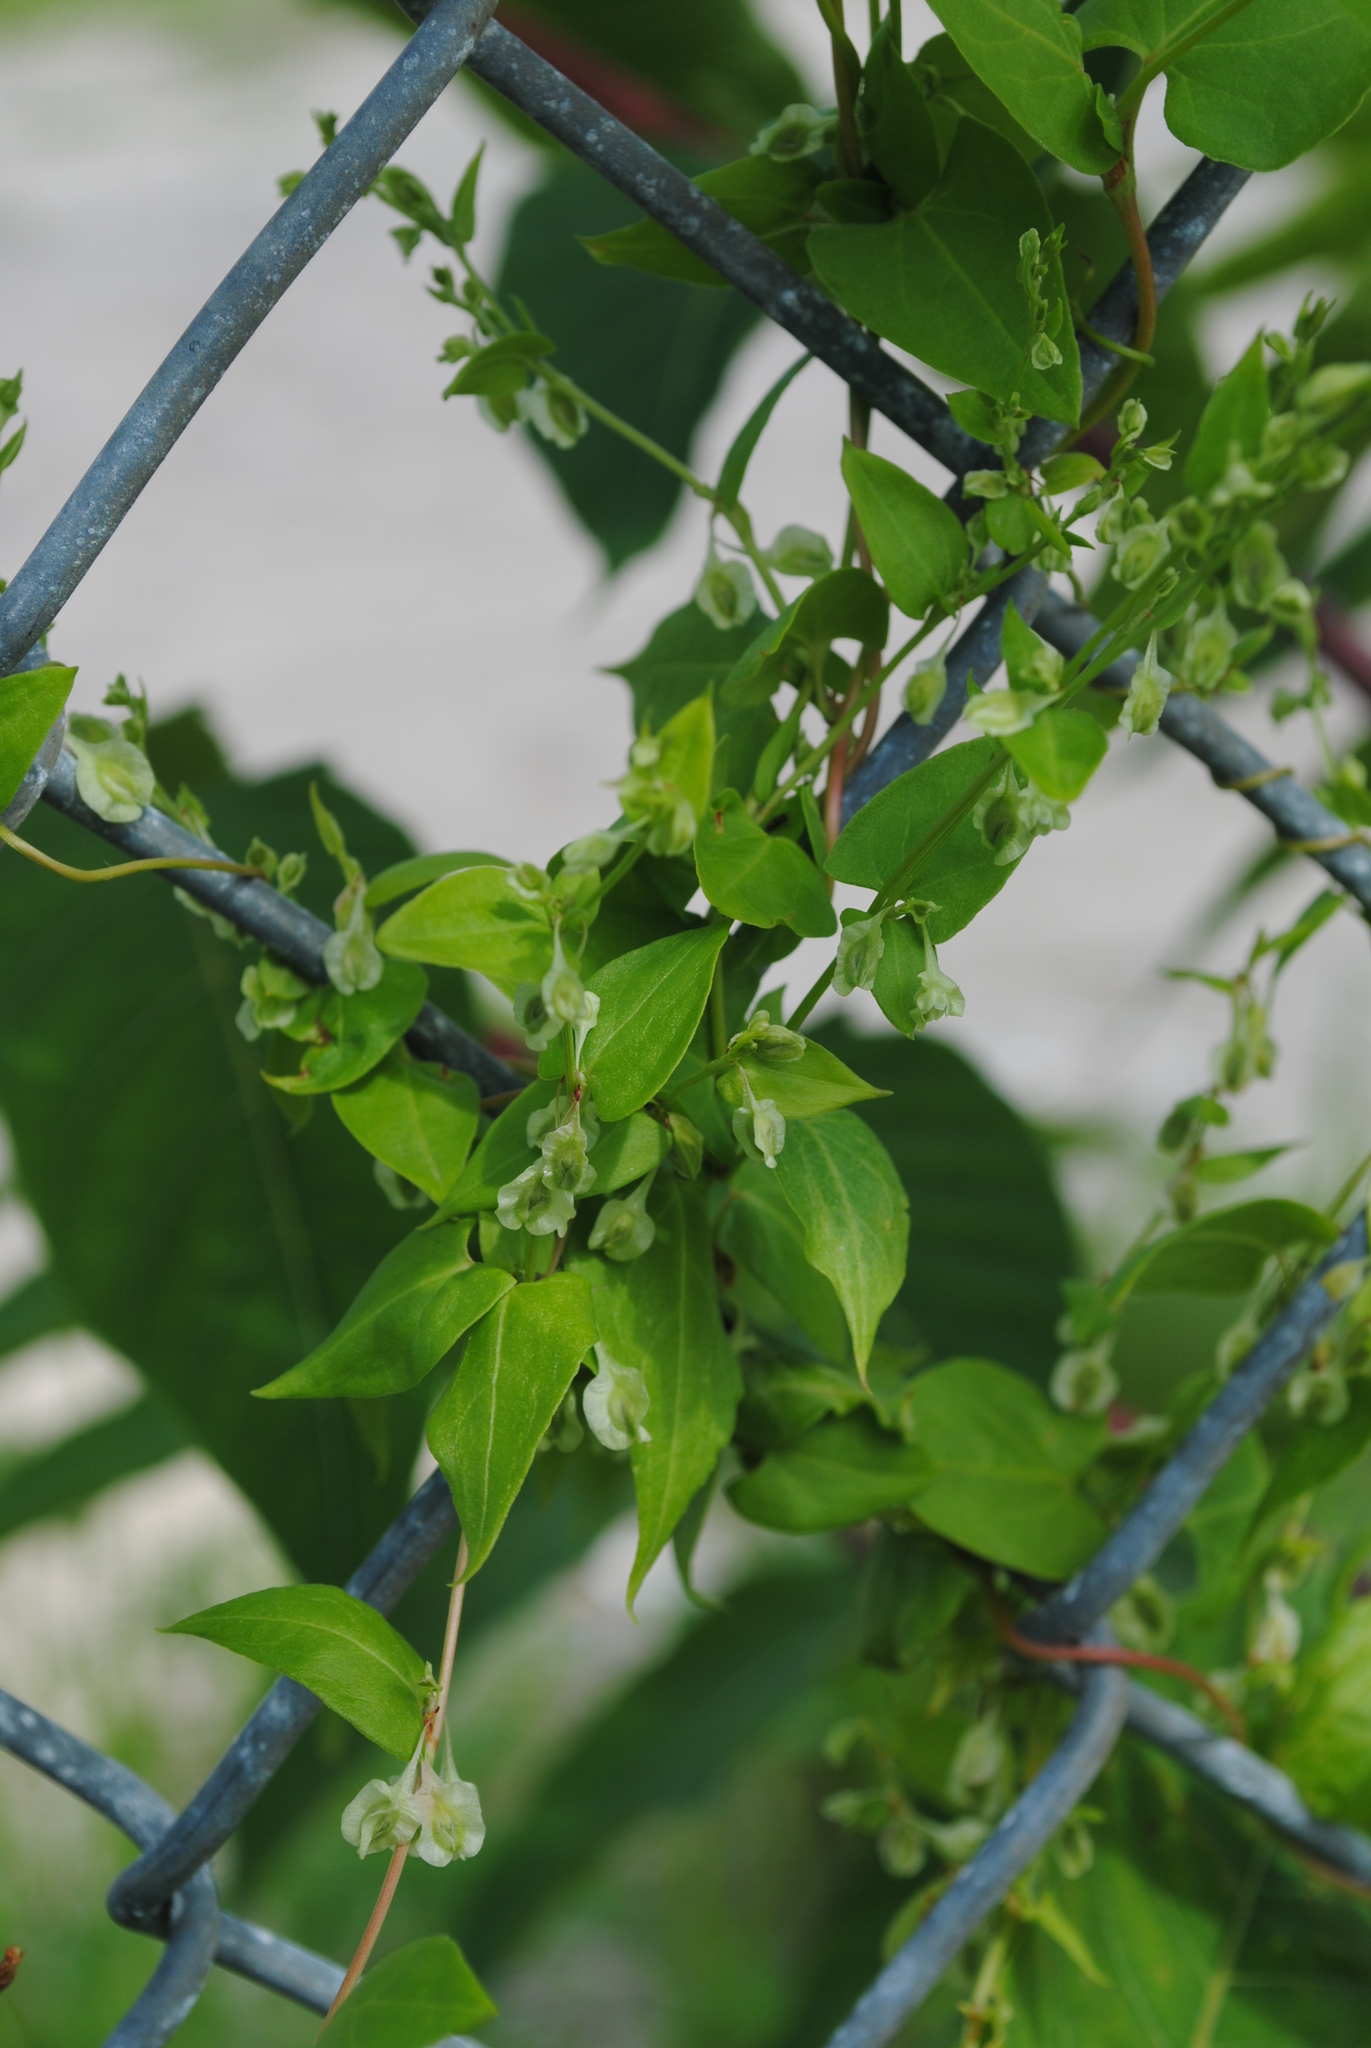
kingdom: Plantae
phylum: Tracheophyta
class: Magnoliopsida
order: Caryophyllales
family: Polygonaceae
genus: Fallopia
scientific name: Fallopia scandens
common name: Climbing false buckwheat
